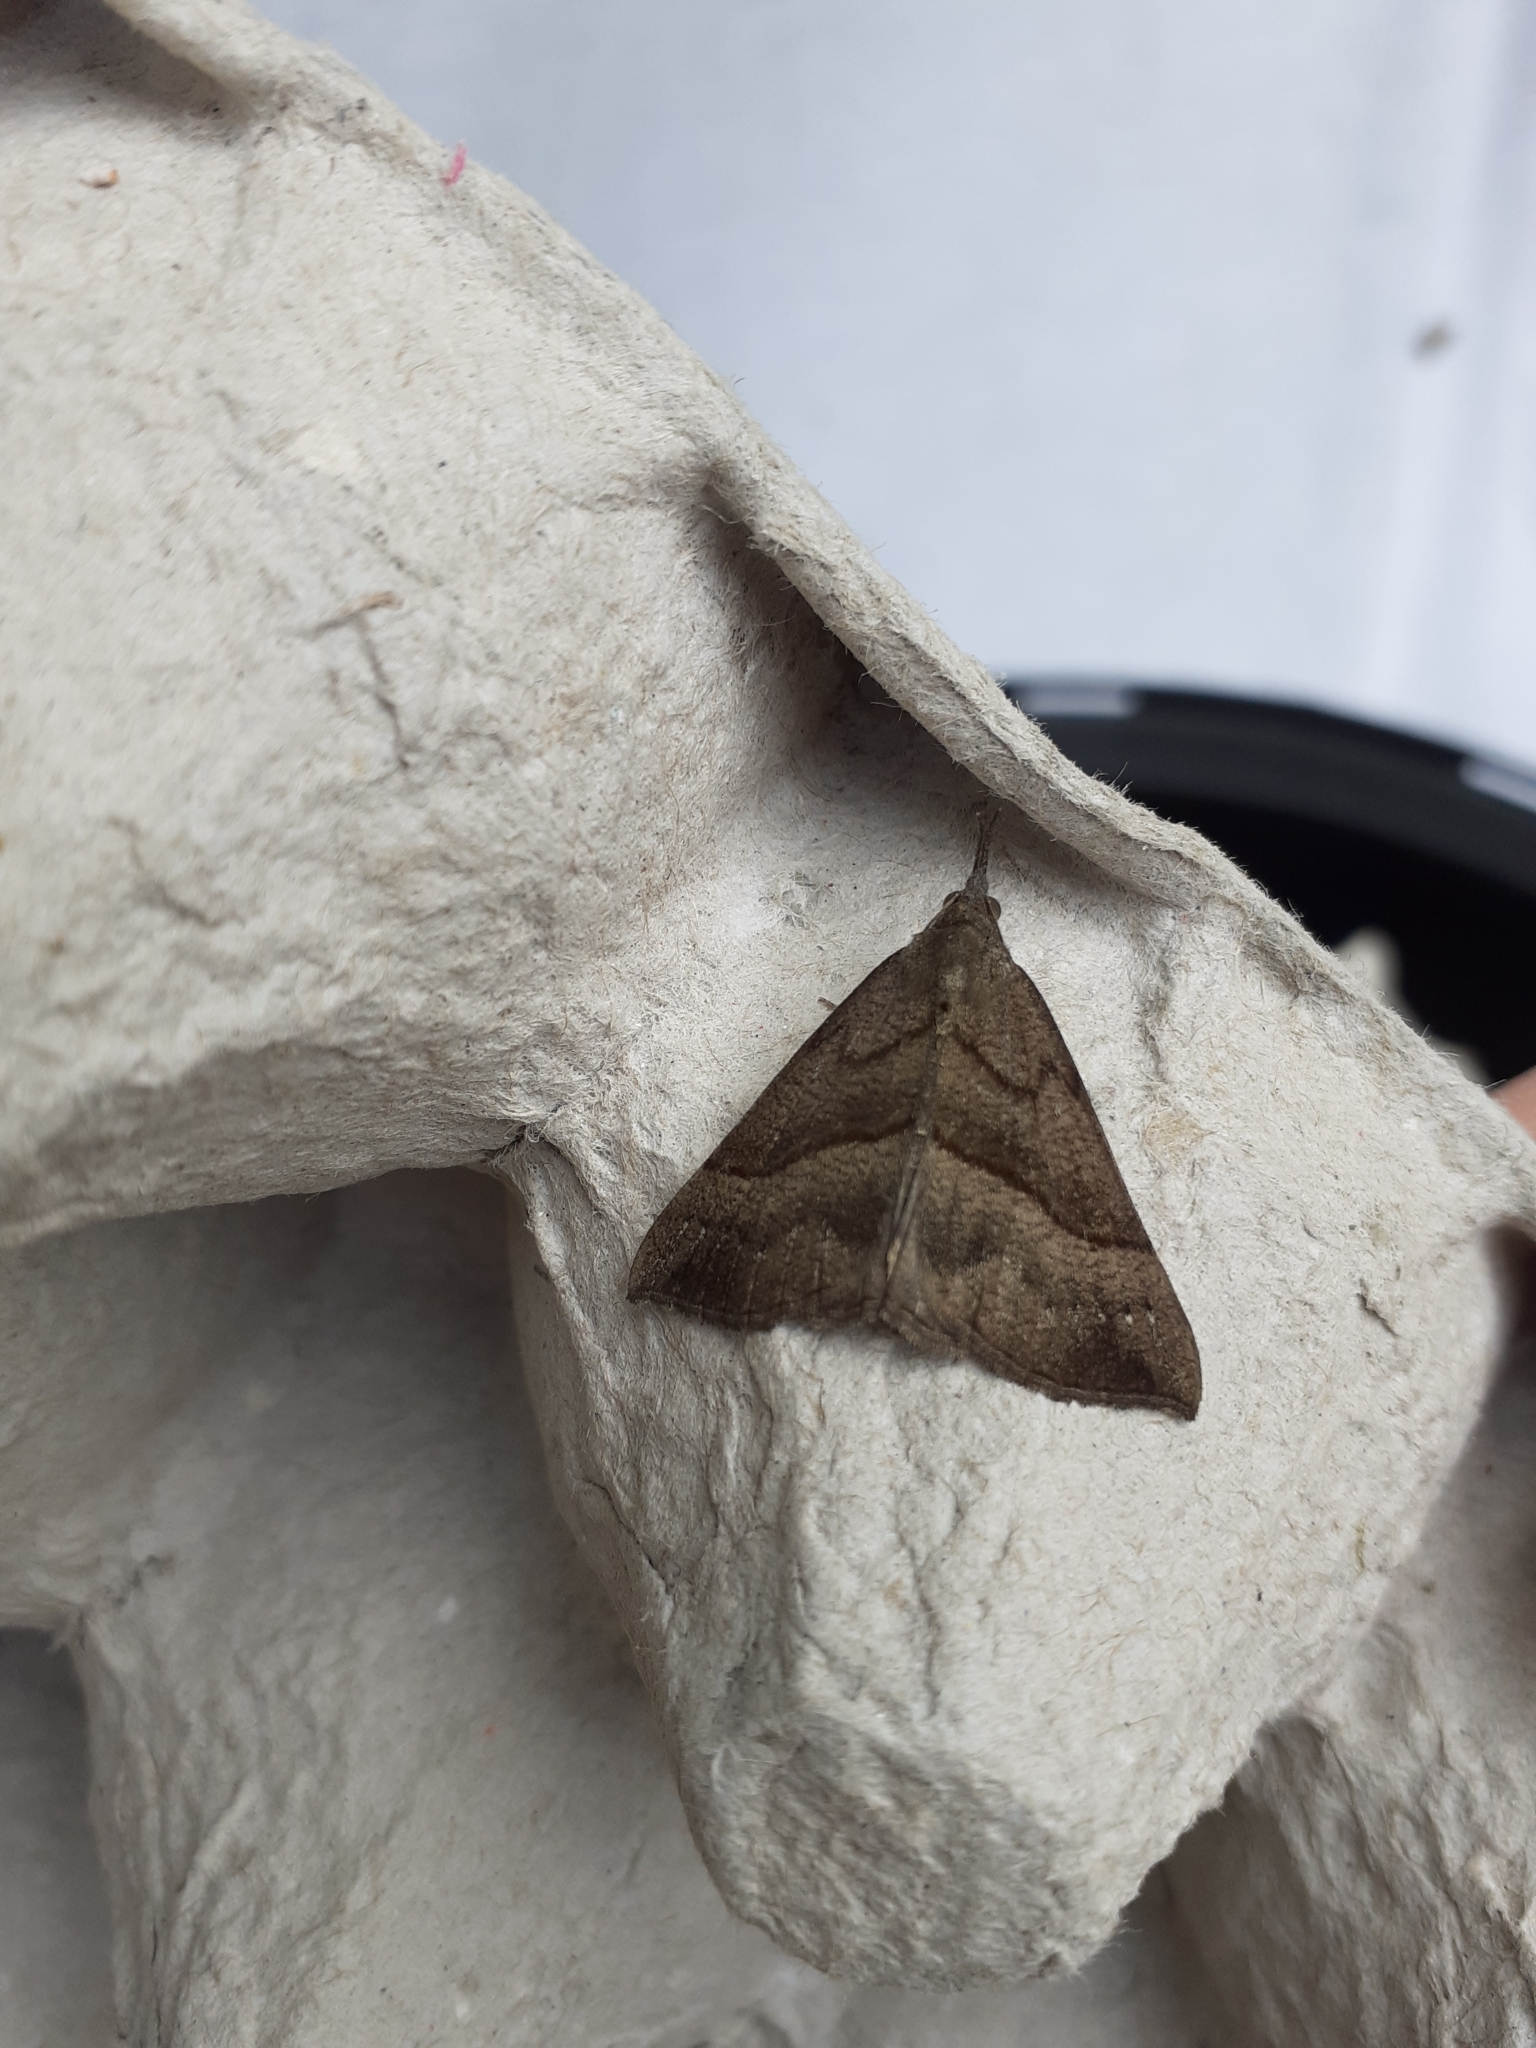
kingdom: Animalia
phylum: Arthropoda
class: Insecta
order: Lepidoptera
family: Erebidae
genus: Hypena
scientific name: Hypena proboscidalis
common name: Snout
